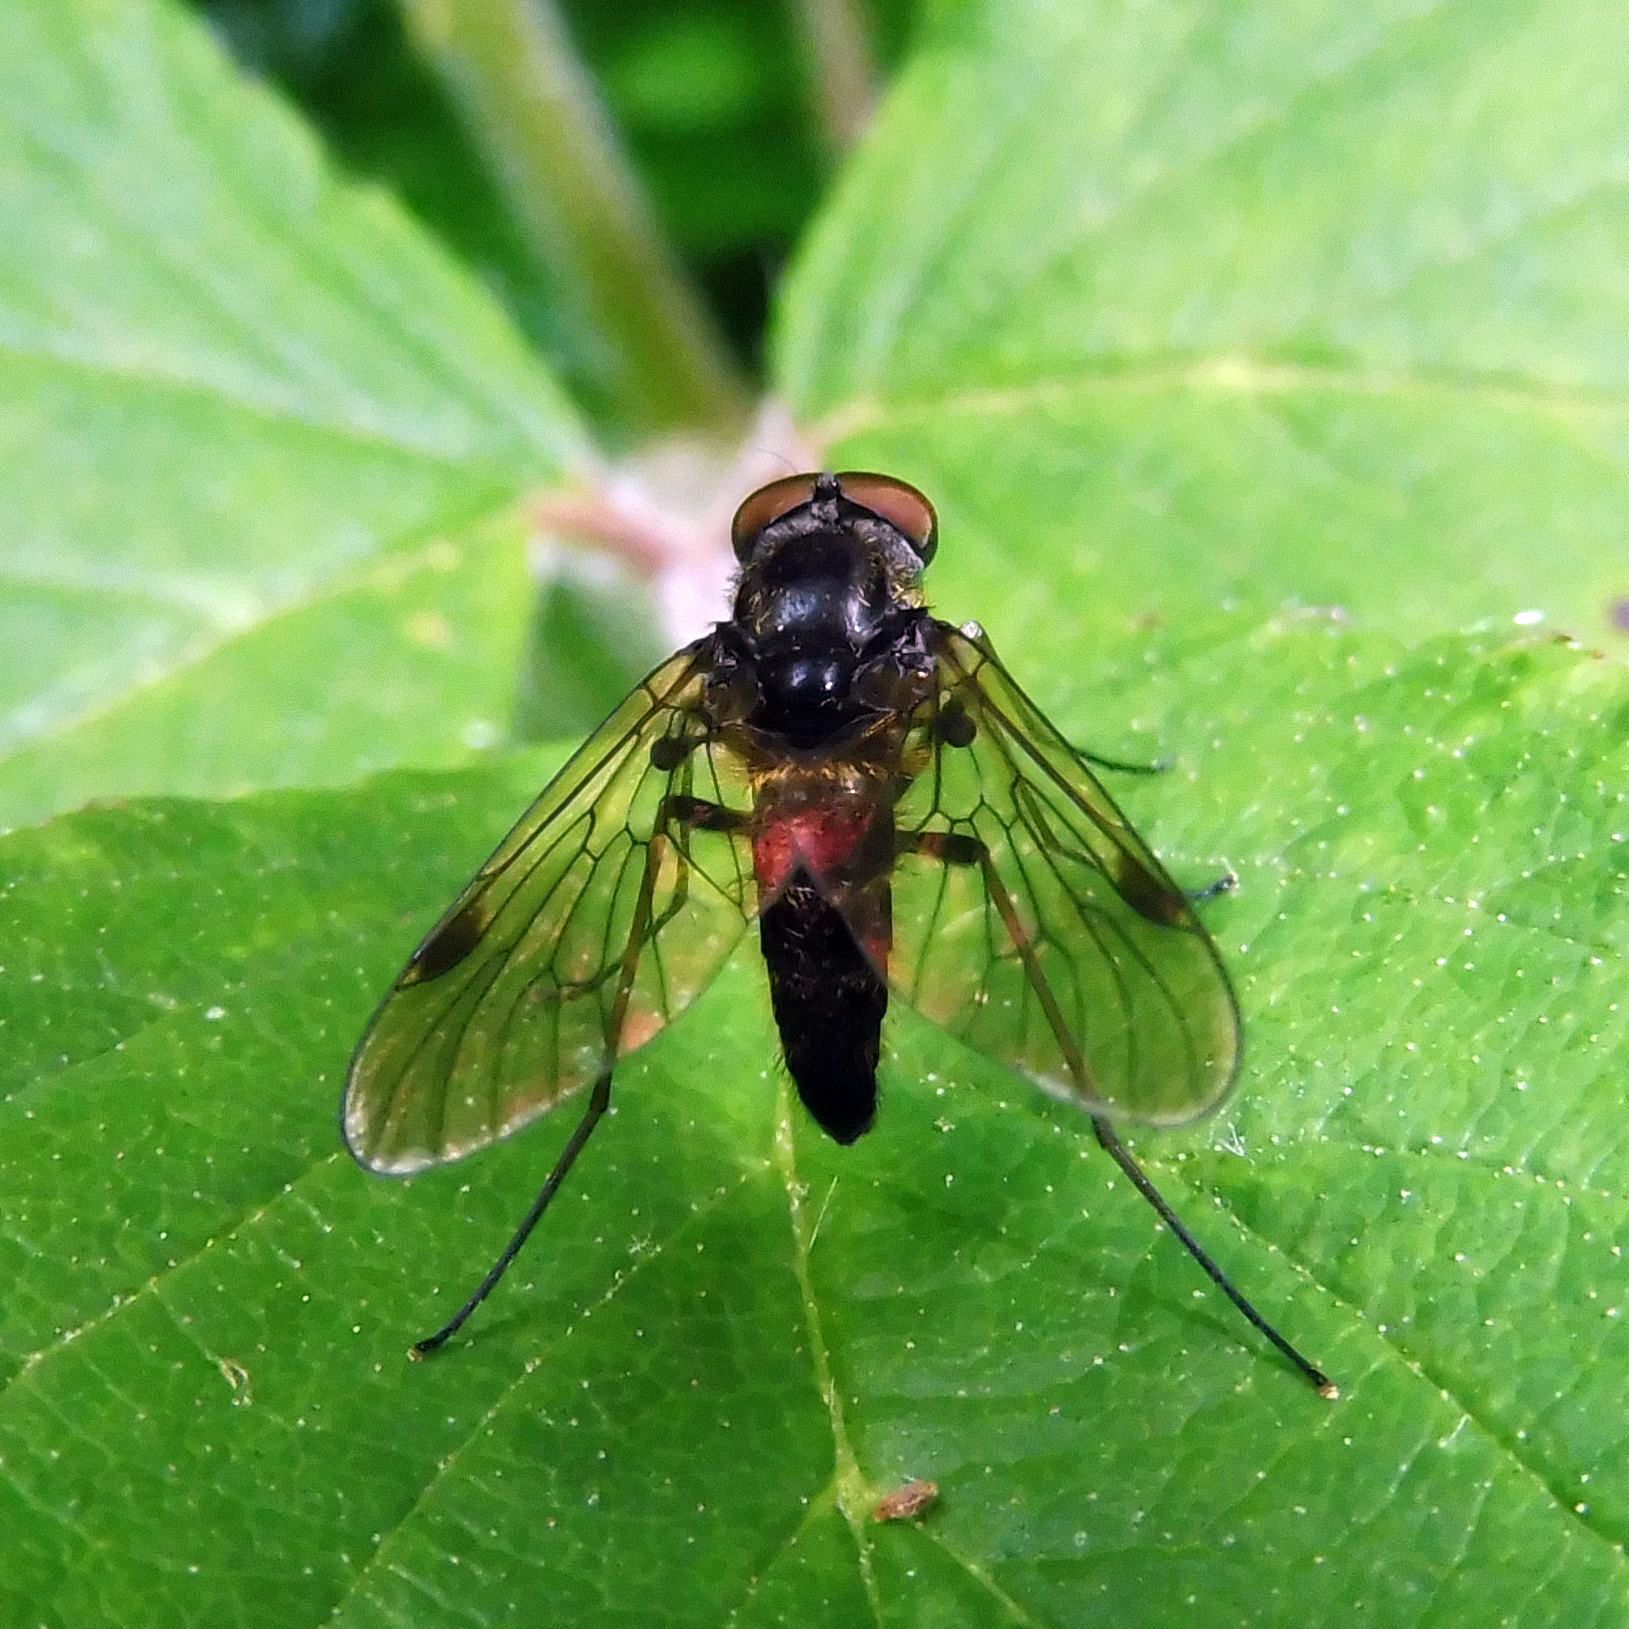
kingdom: Animalia
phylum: Arthropoda
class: Insecta
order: Diptera
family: Rhagionidae
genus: Chrysopilus
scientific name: Chrysopilus cristatus
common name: Black snipefly
